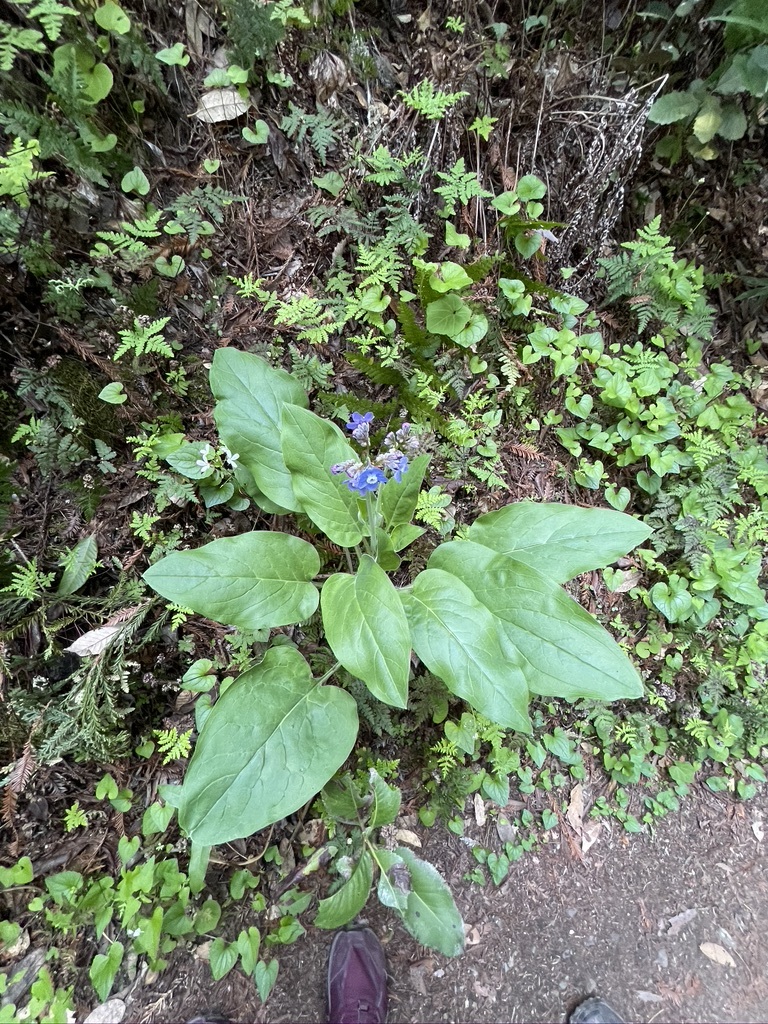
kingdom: Plantae
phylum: Tracheophyta
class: Magnoliopsida
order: Boraginales
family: Boraginaceae
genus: Adelinia
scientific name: Adelinia grande
